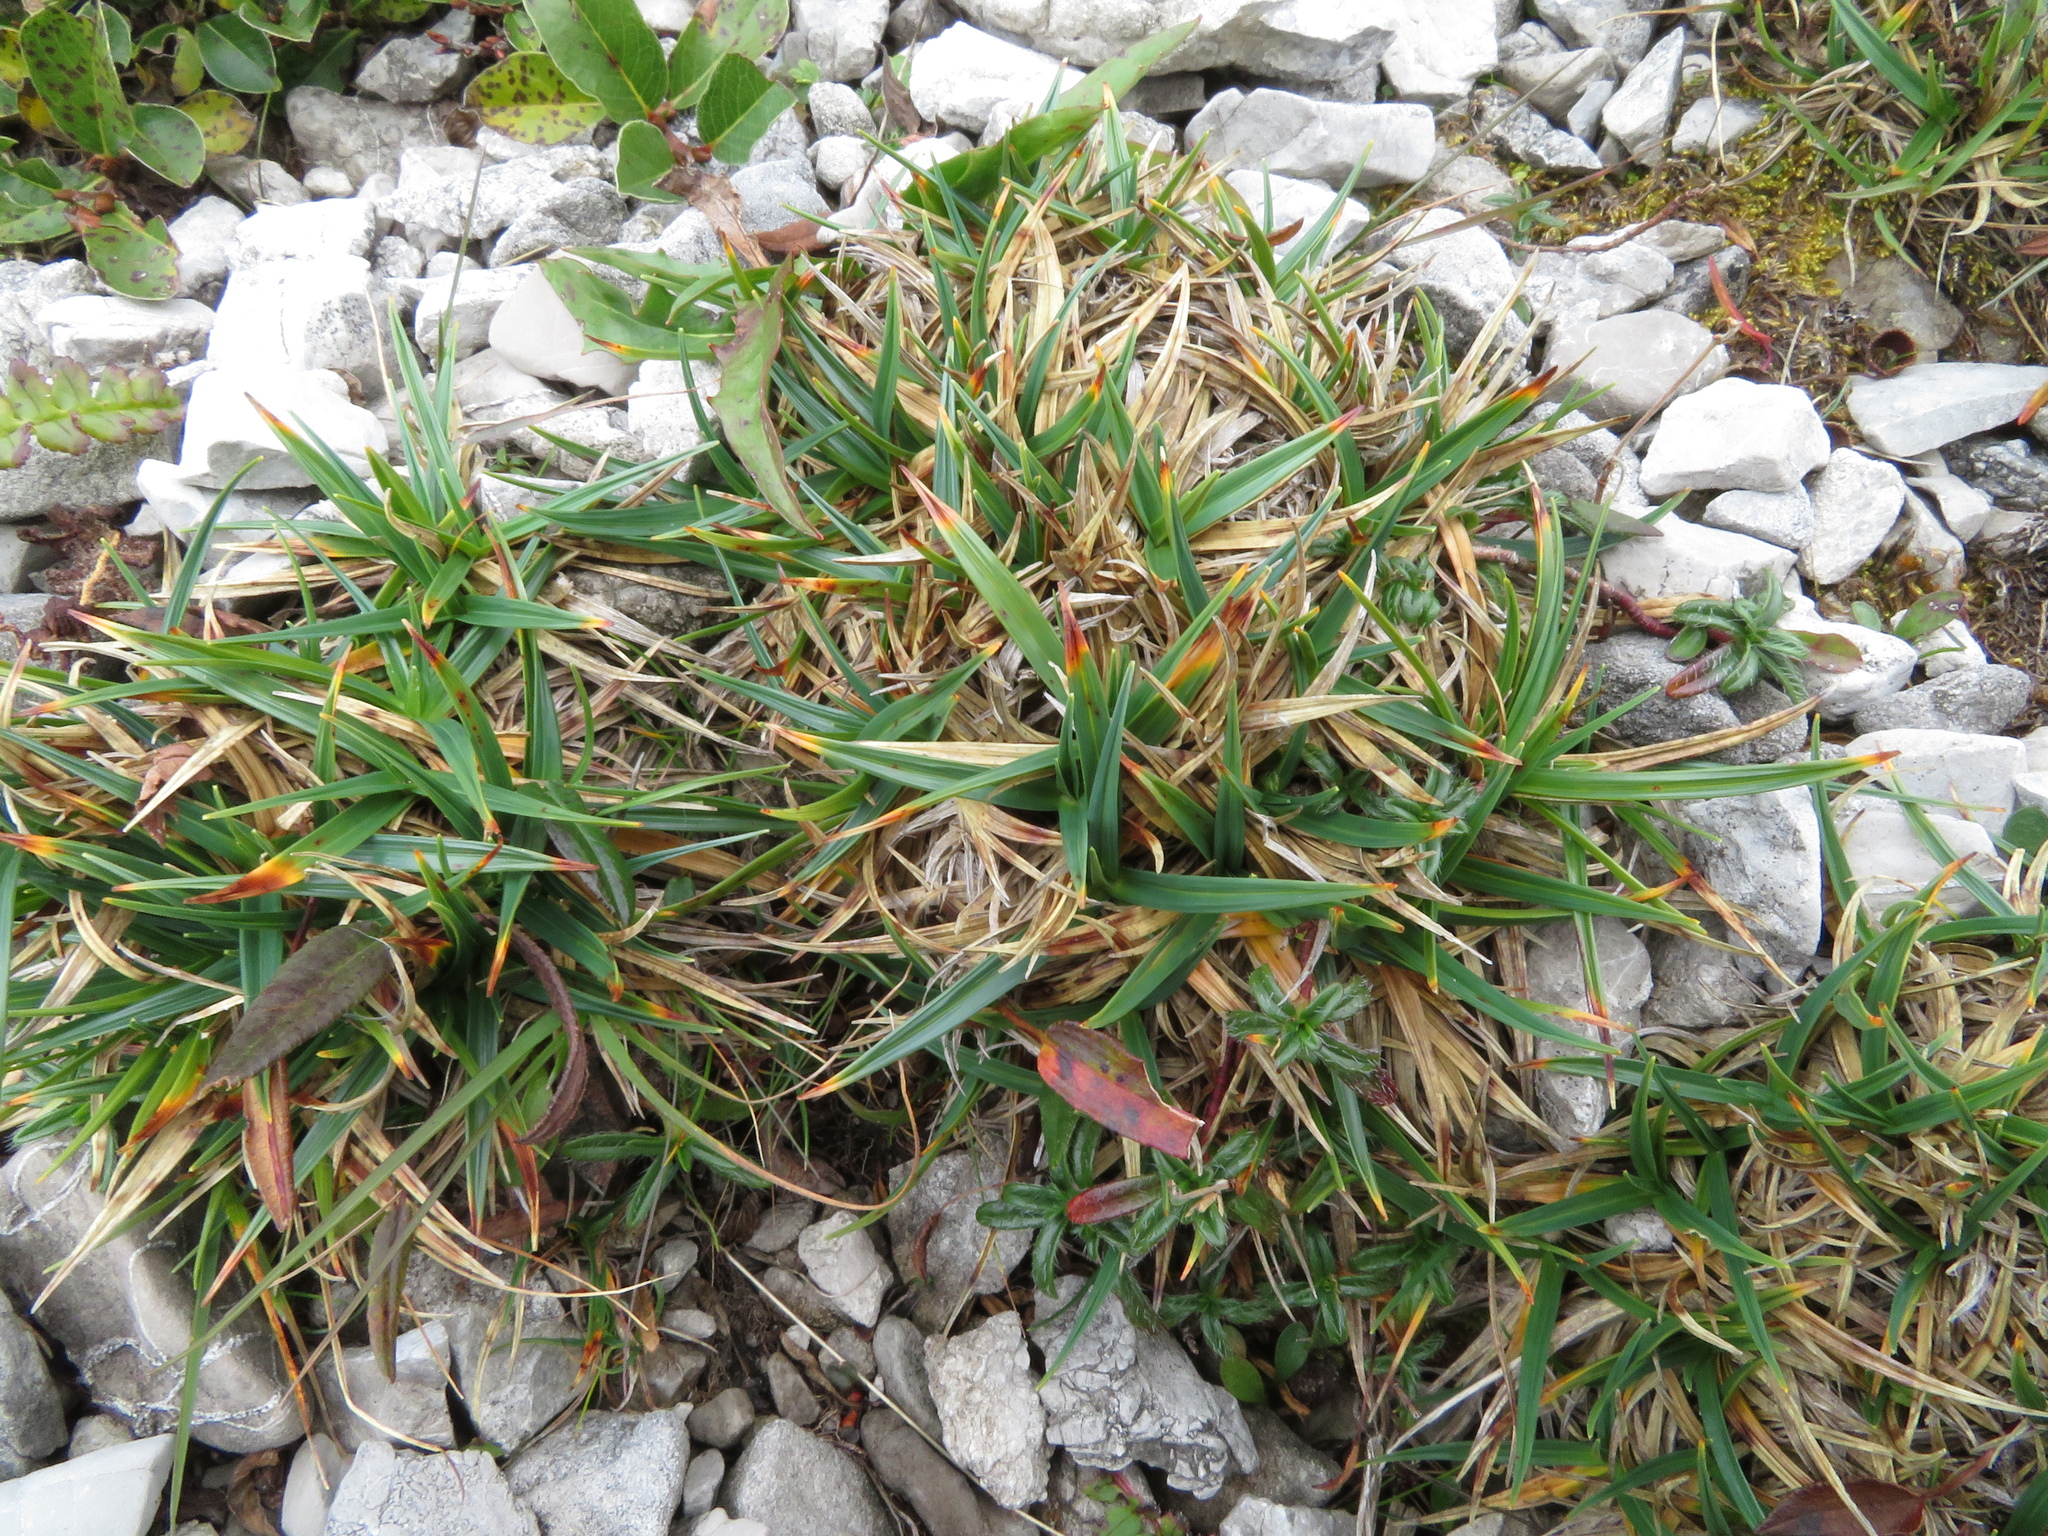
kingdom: Plantae
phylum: Tracheophyta
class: Liliopsida
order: Poales
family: Cyperaceae
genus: Carex
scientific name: Carex firma
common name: Dwarf pillow sedge
